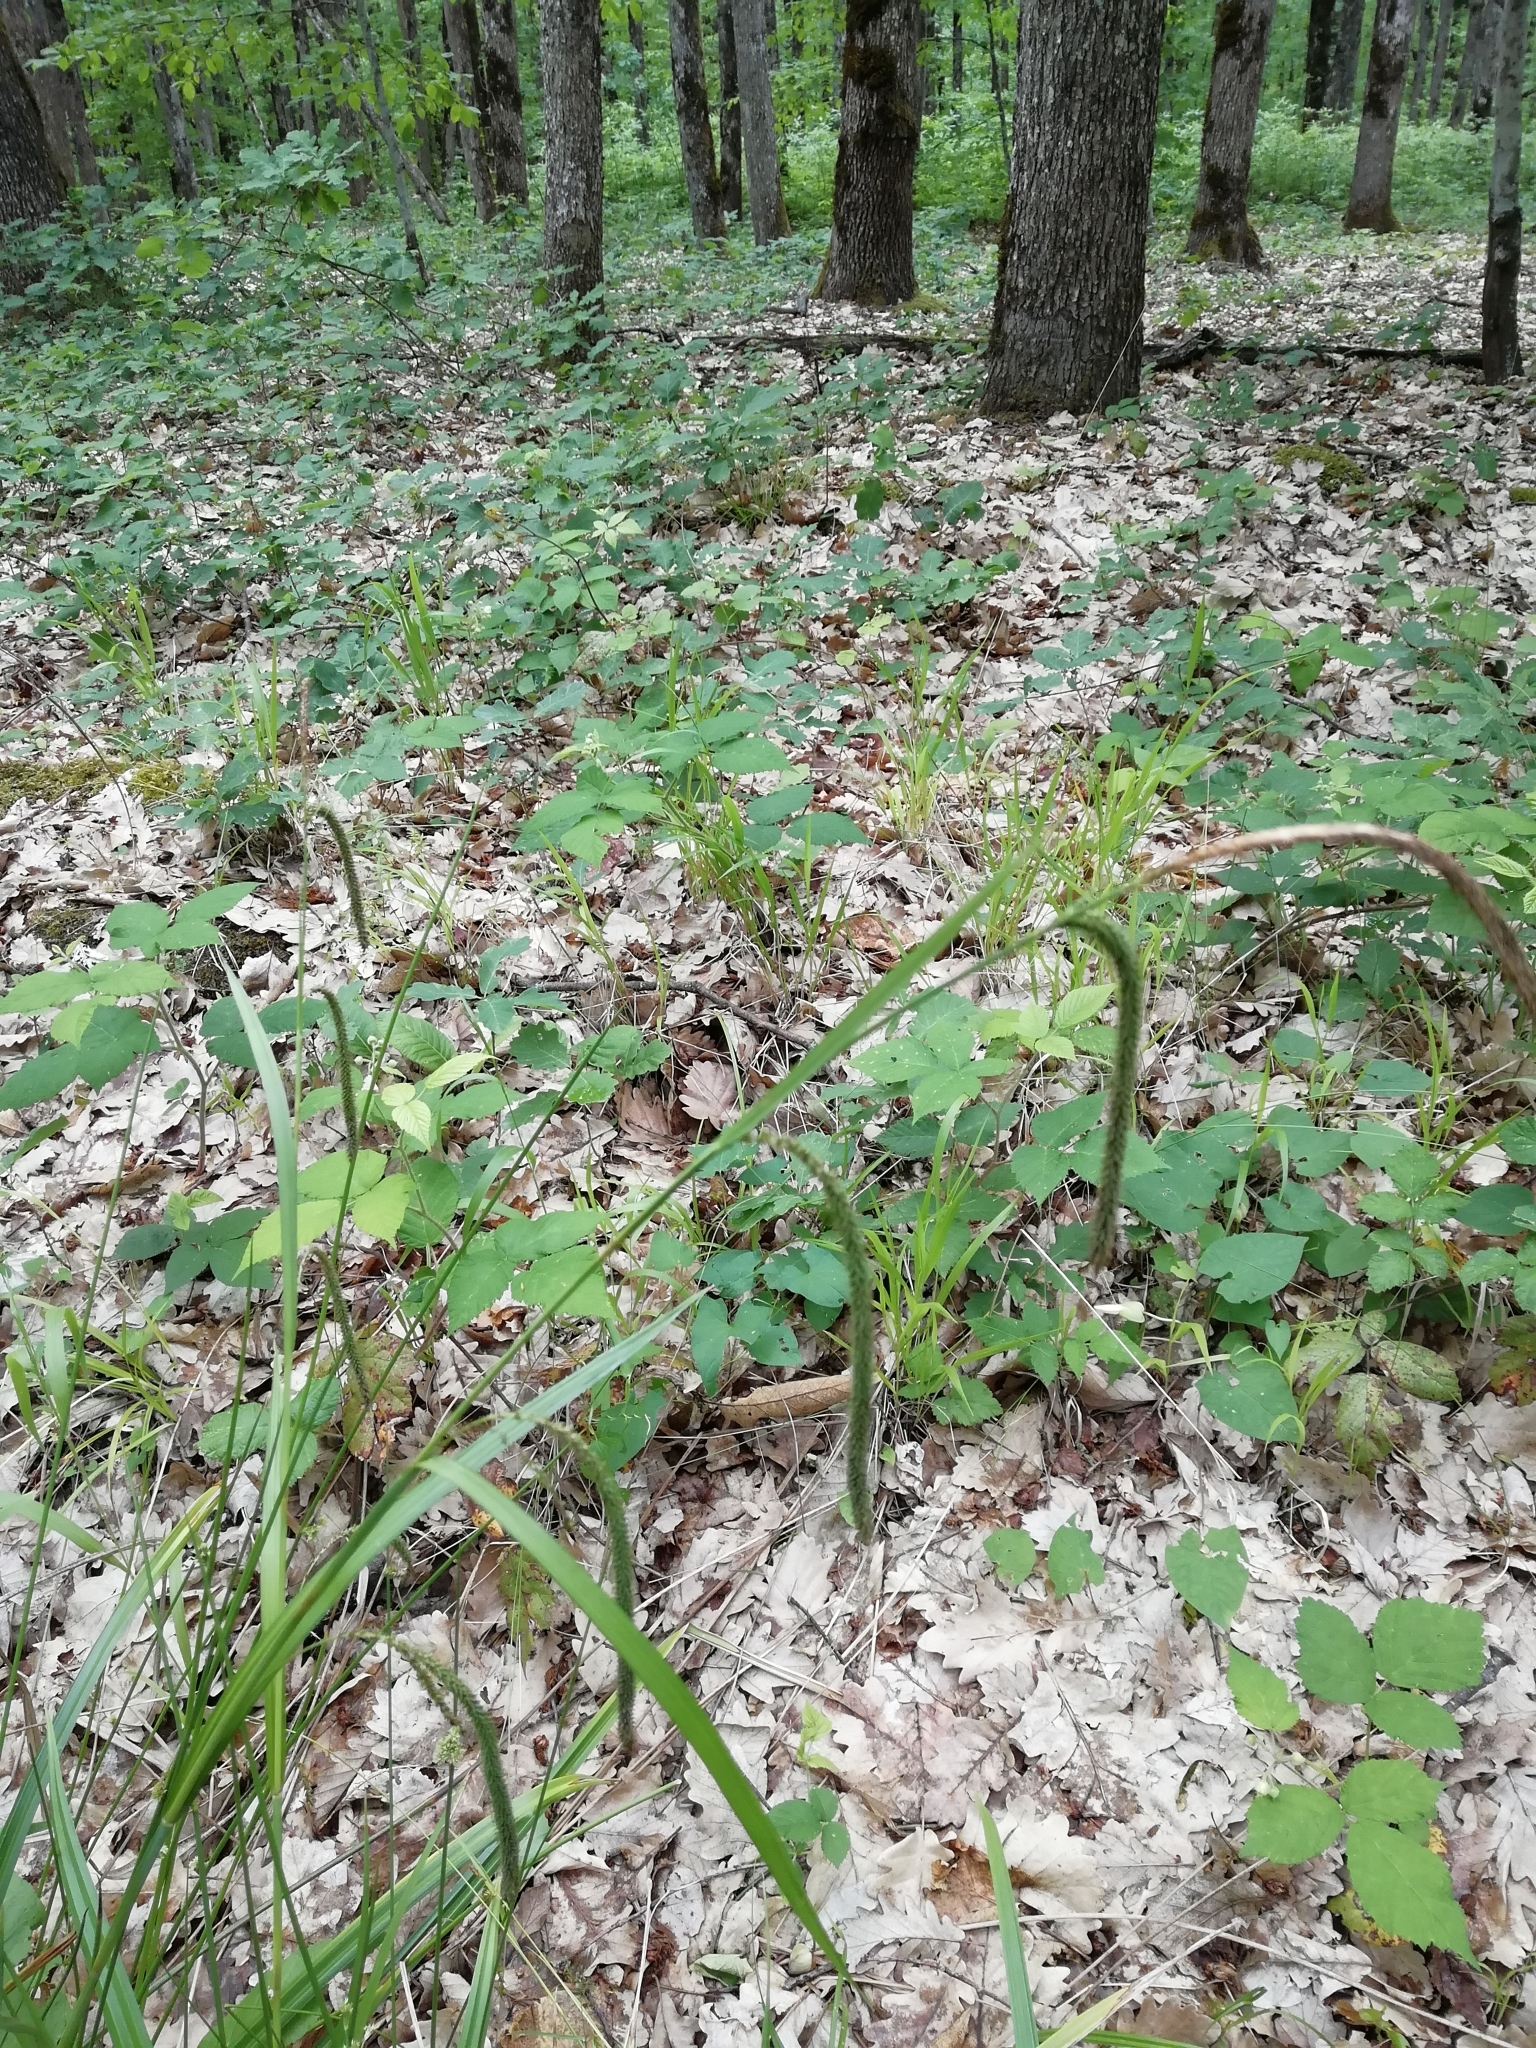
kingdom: Plantae
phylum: Tracheophyta
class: Liliopsida
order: Poales
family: Cyperaceae
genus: Carex
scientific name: Carex pendula
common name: Pendulous sedge
